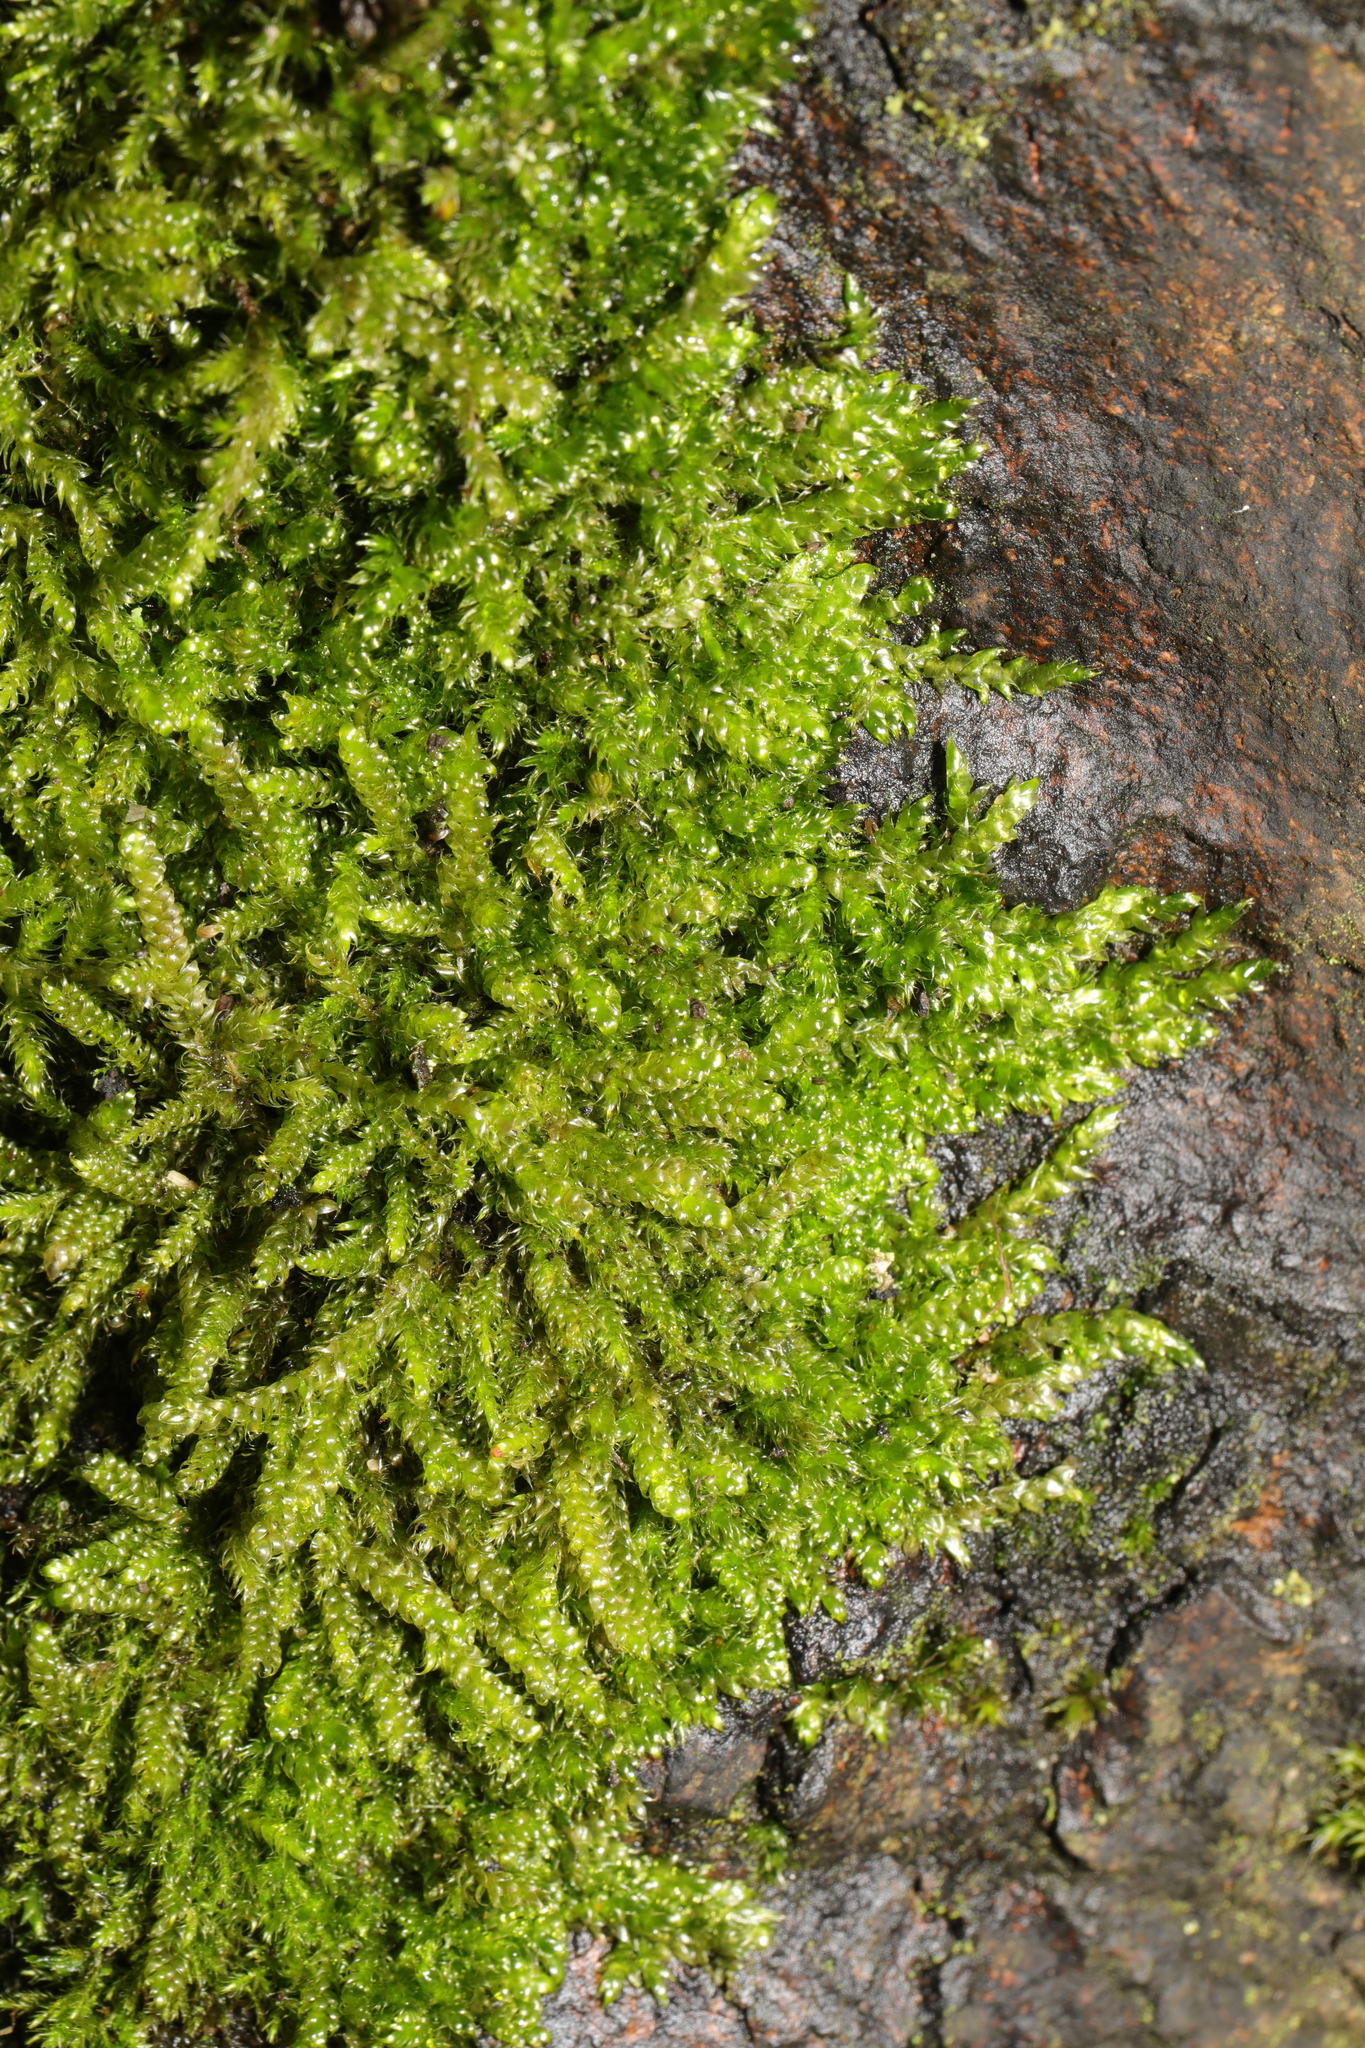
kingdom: Plantae
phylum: Bryophyta
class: Bryopsida
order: Hypnales
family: Hypnaceae
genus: Hypnum
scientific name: Hypnum cupressiforme
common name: Cypress-leaved plait-moss
